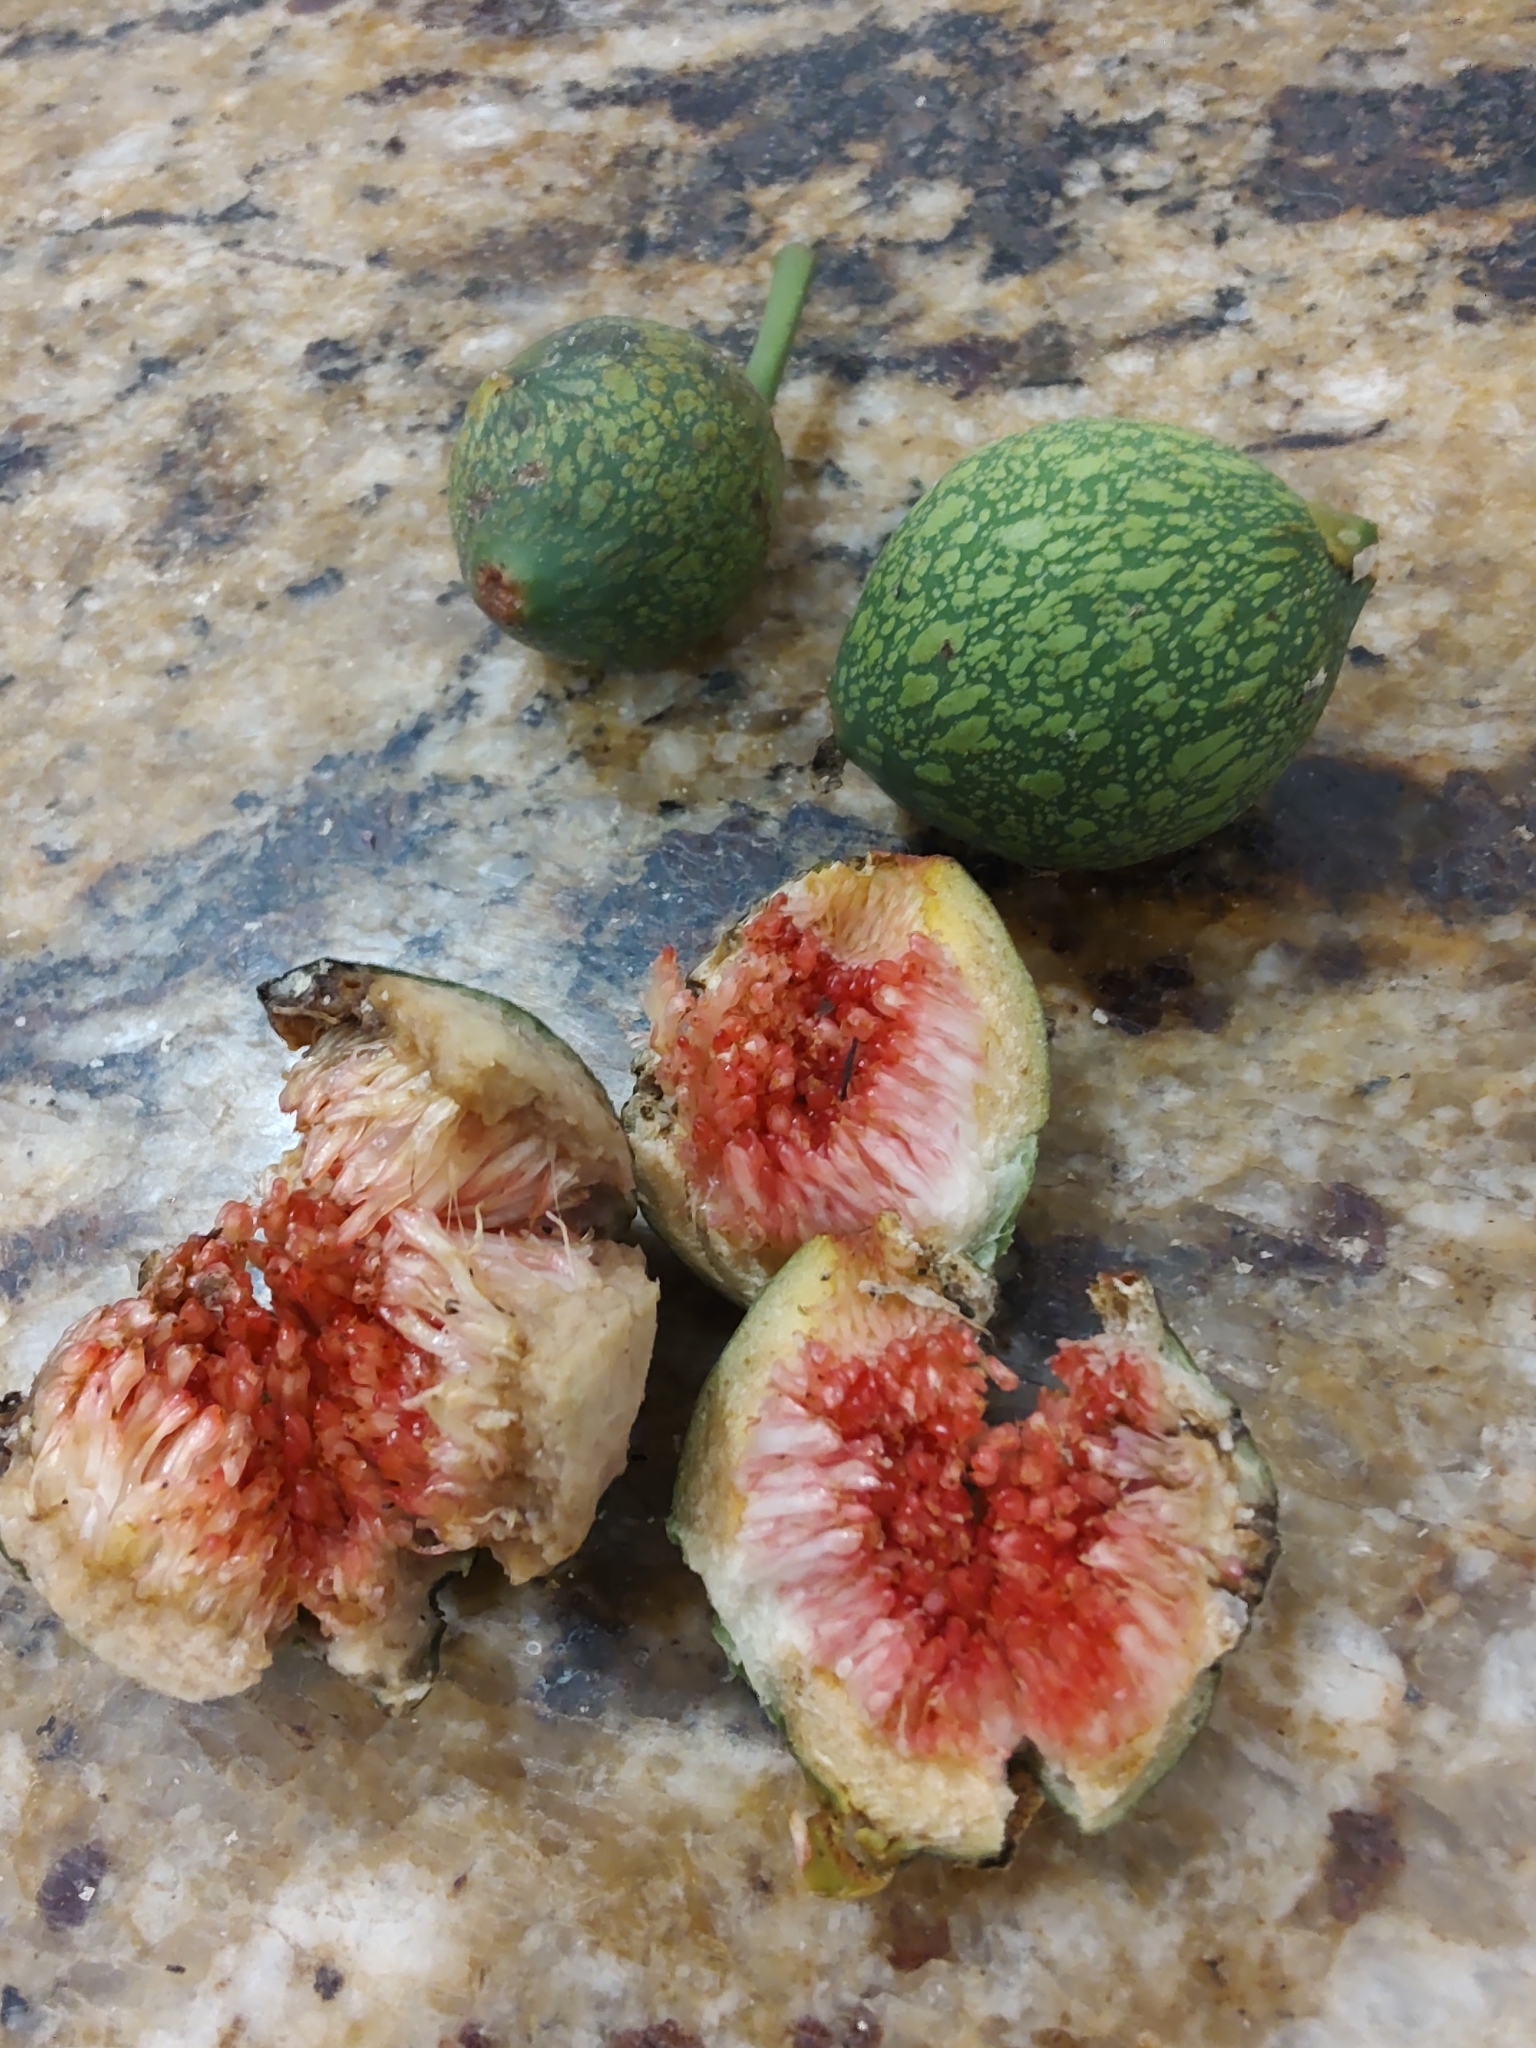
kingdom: Plantae
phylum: Tracheophyta
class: Magnoliopsida
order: Rosales
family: Moraceae
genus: Ficus
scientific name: Ficus luschnathiana
